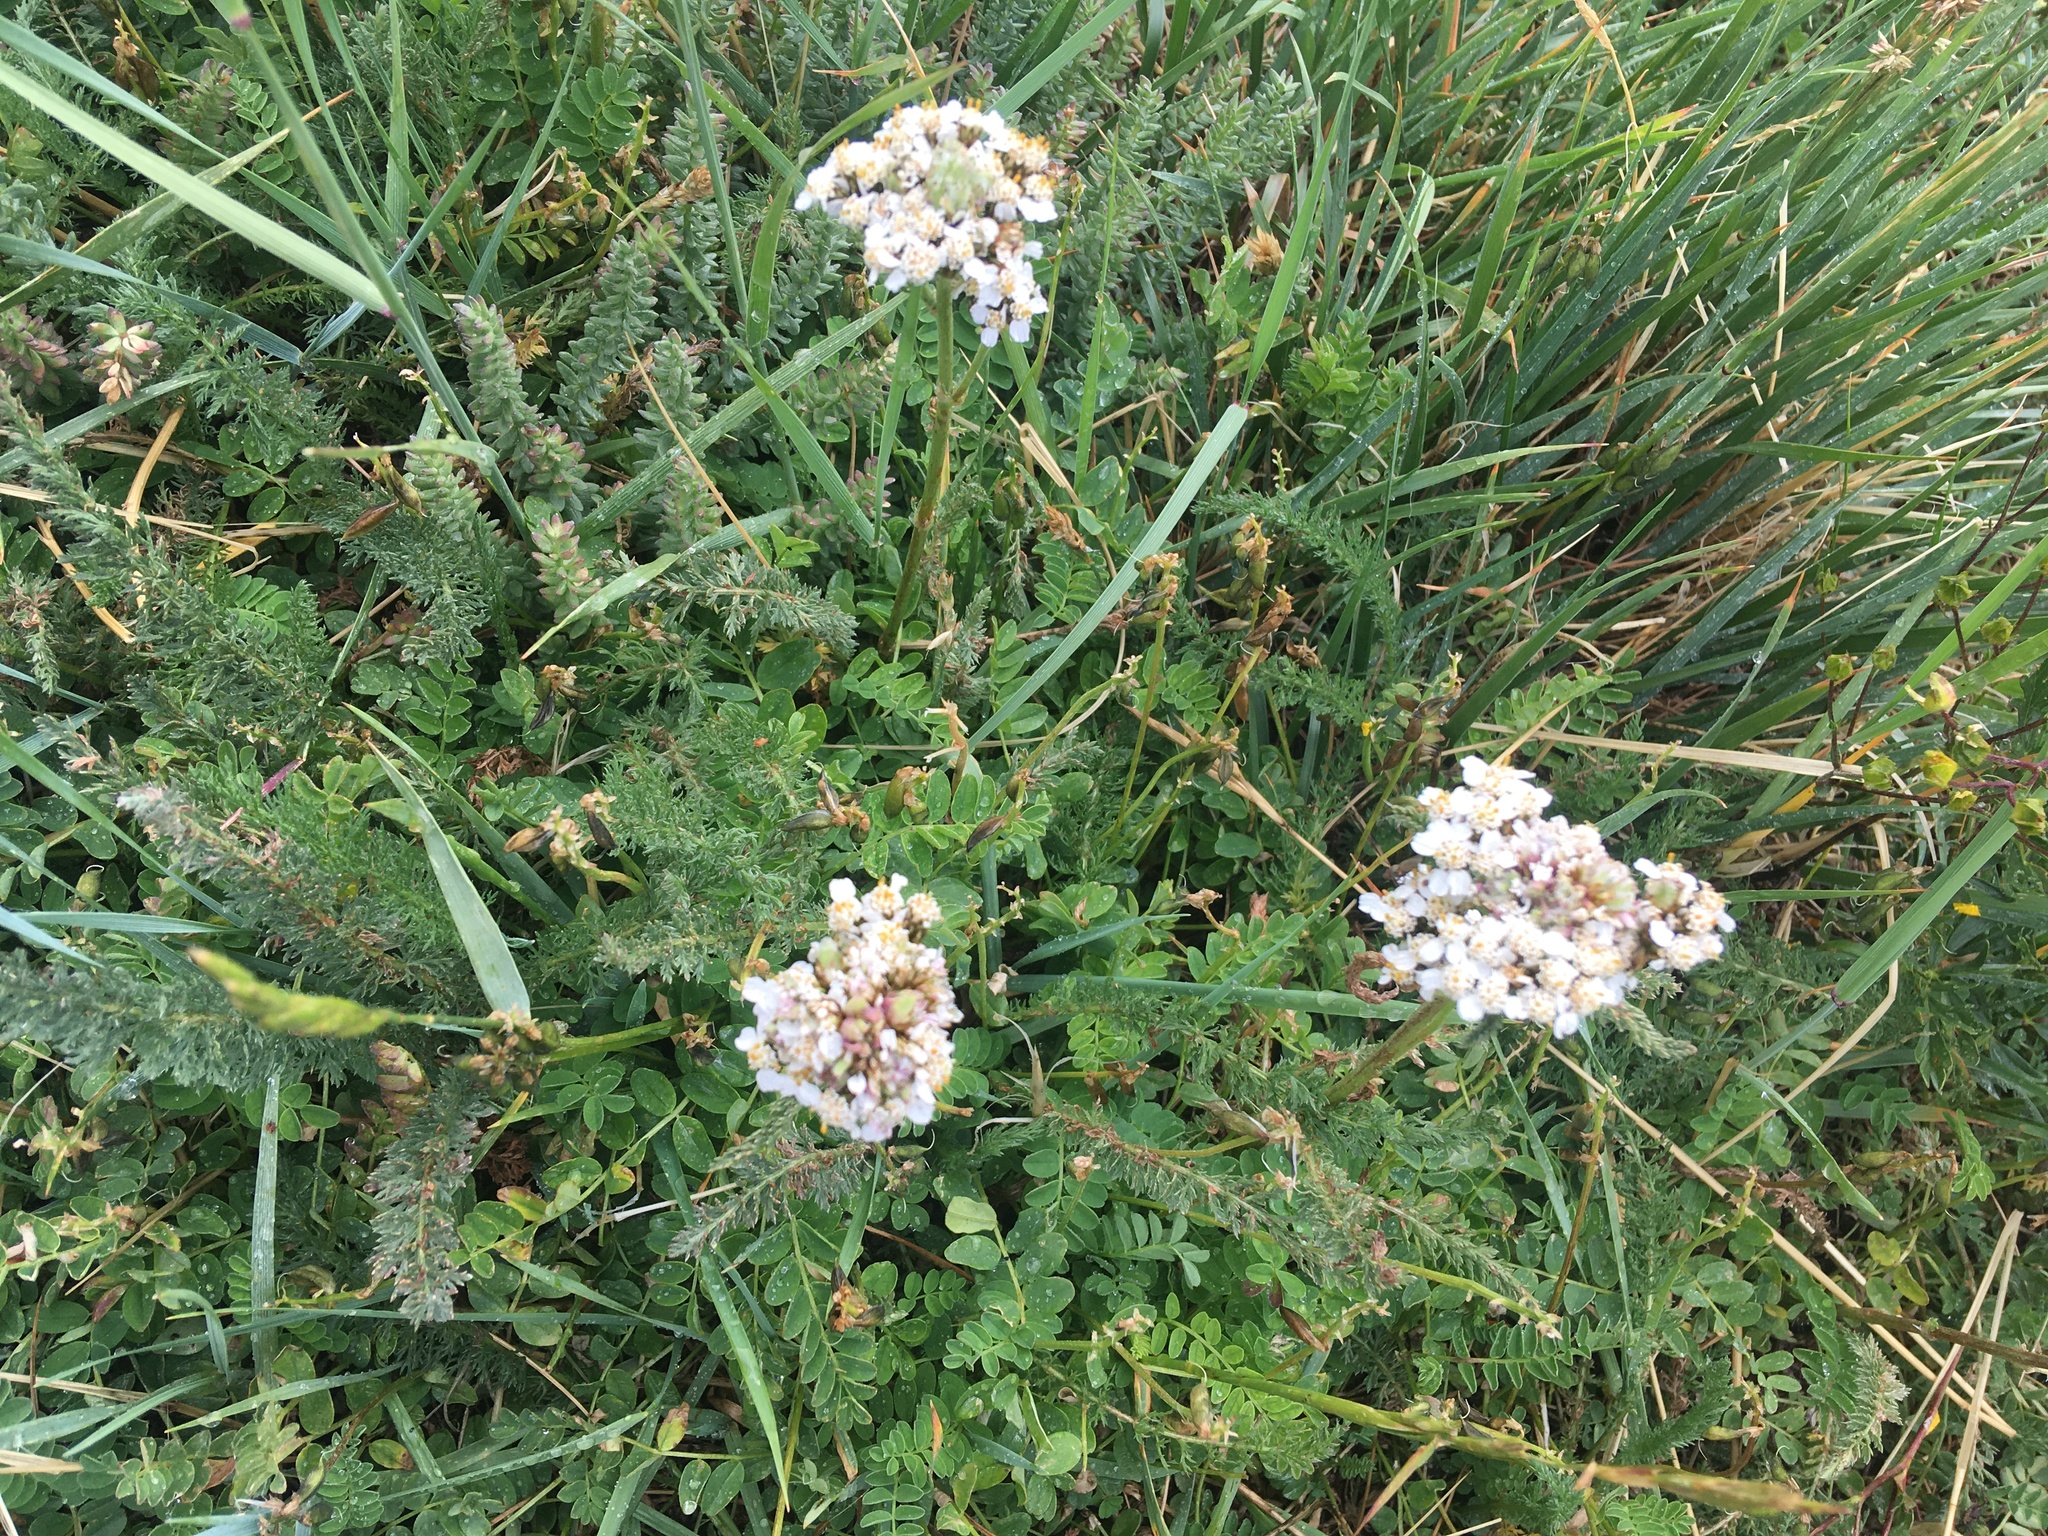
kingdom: Plantae
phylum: Tracheophyta
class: Magnoliopsida
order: Asterales
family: Asteraceae
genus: Achillea
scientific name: Achillea millefolium
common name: Yarrow
